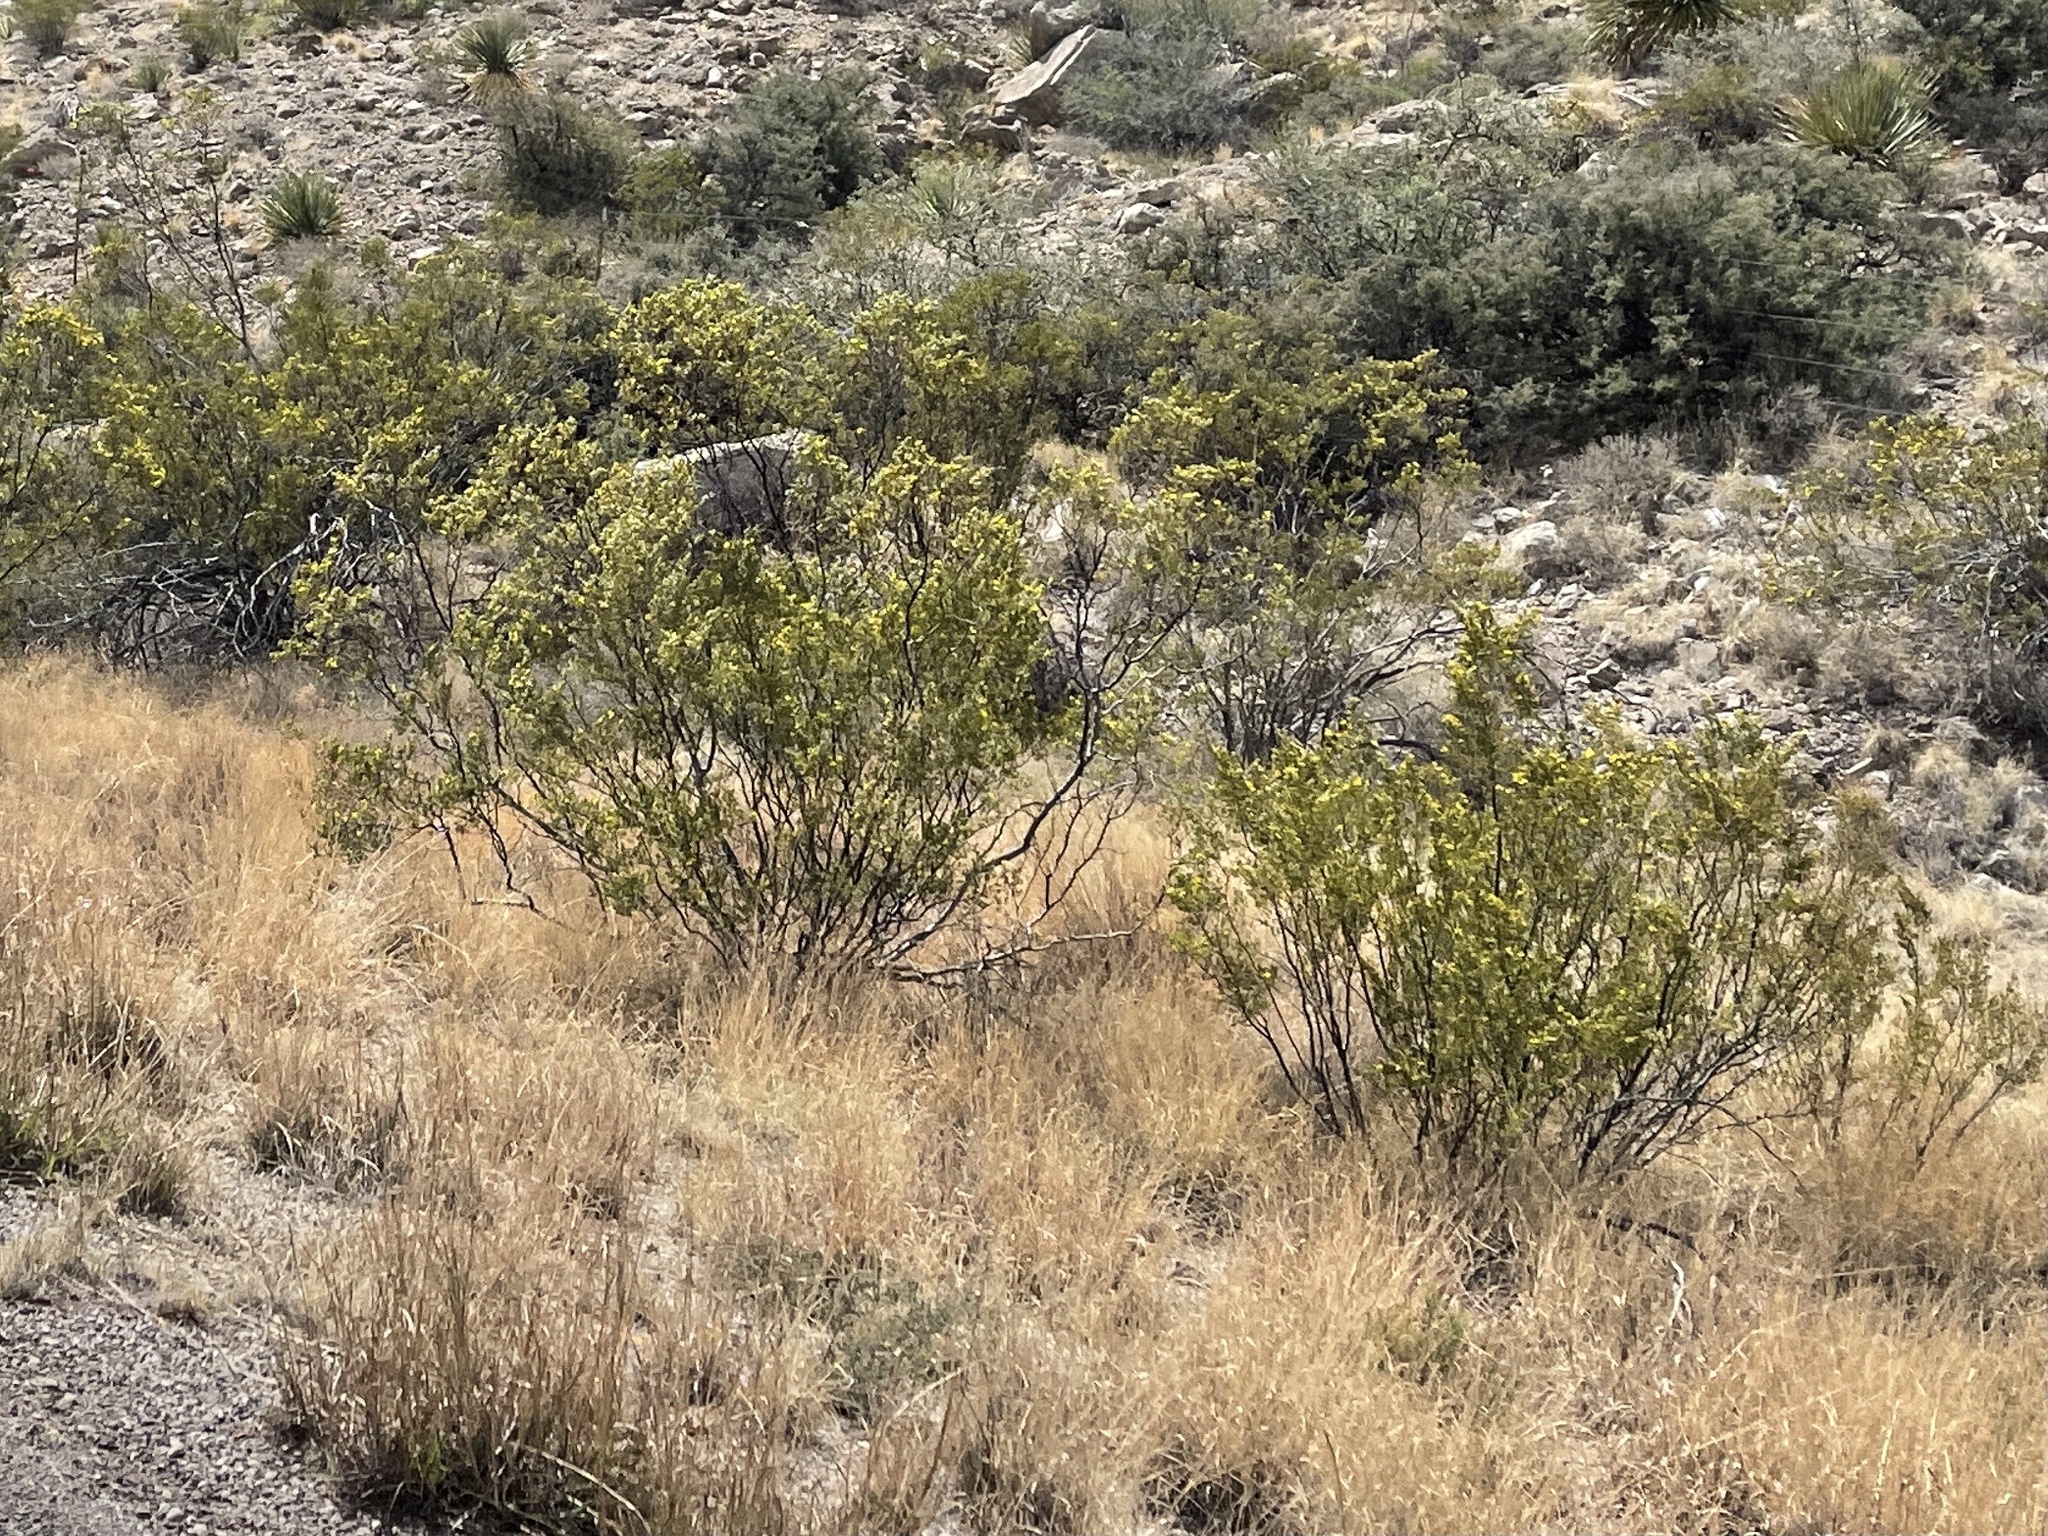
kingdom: Plantae
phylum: Tracheophyta
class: Magnoliopsida
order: Zygophyllales
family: Zygophyllaceae
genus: Larrea
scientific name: Larrea tridentata
